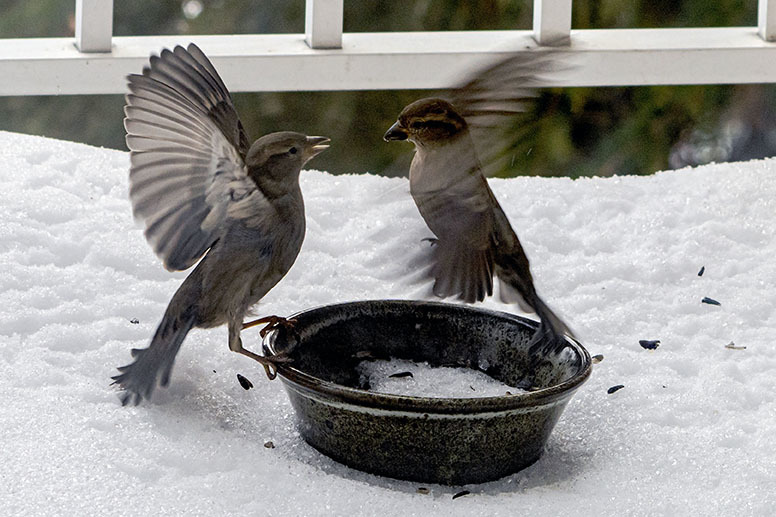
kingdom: Animalia
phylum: Chordata
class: Aves
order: Passeriformes
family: Passeridae
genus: Passer
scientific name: Passer domesticus
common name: House sparrow
